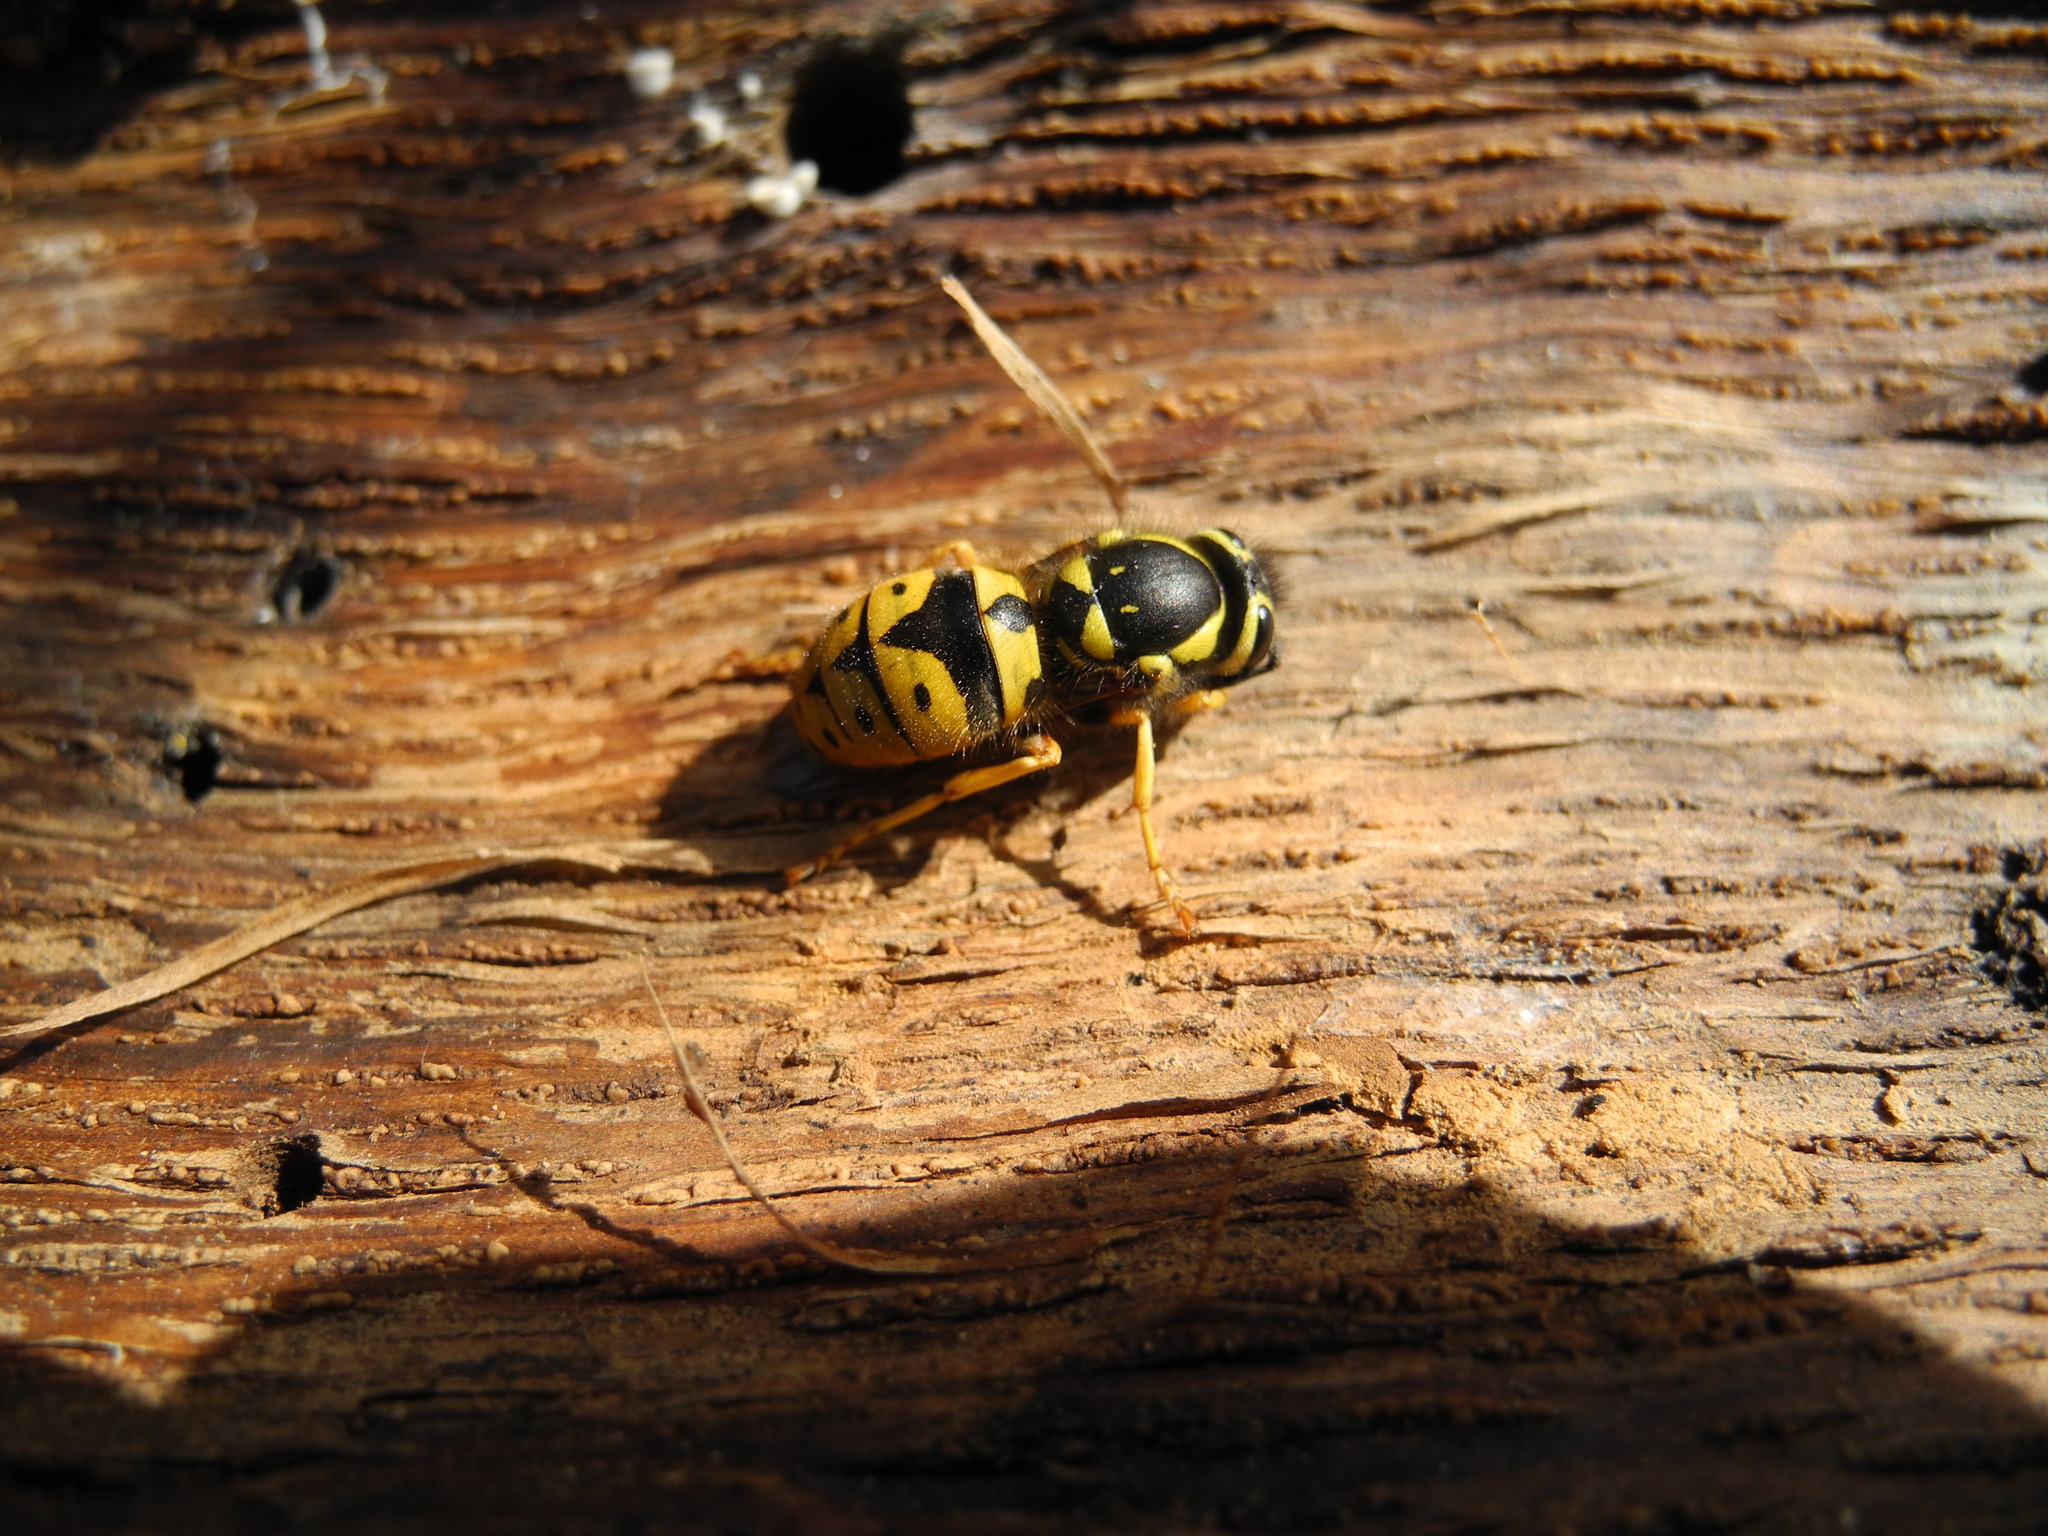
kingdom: Animalia
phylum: Arthropoda
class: Insecta
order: Hymenoptera
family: Vespidae
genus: Vespula
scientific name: Vespula pensylvanica
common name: Western yellowjacket
